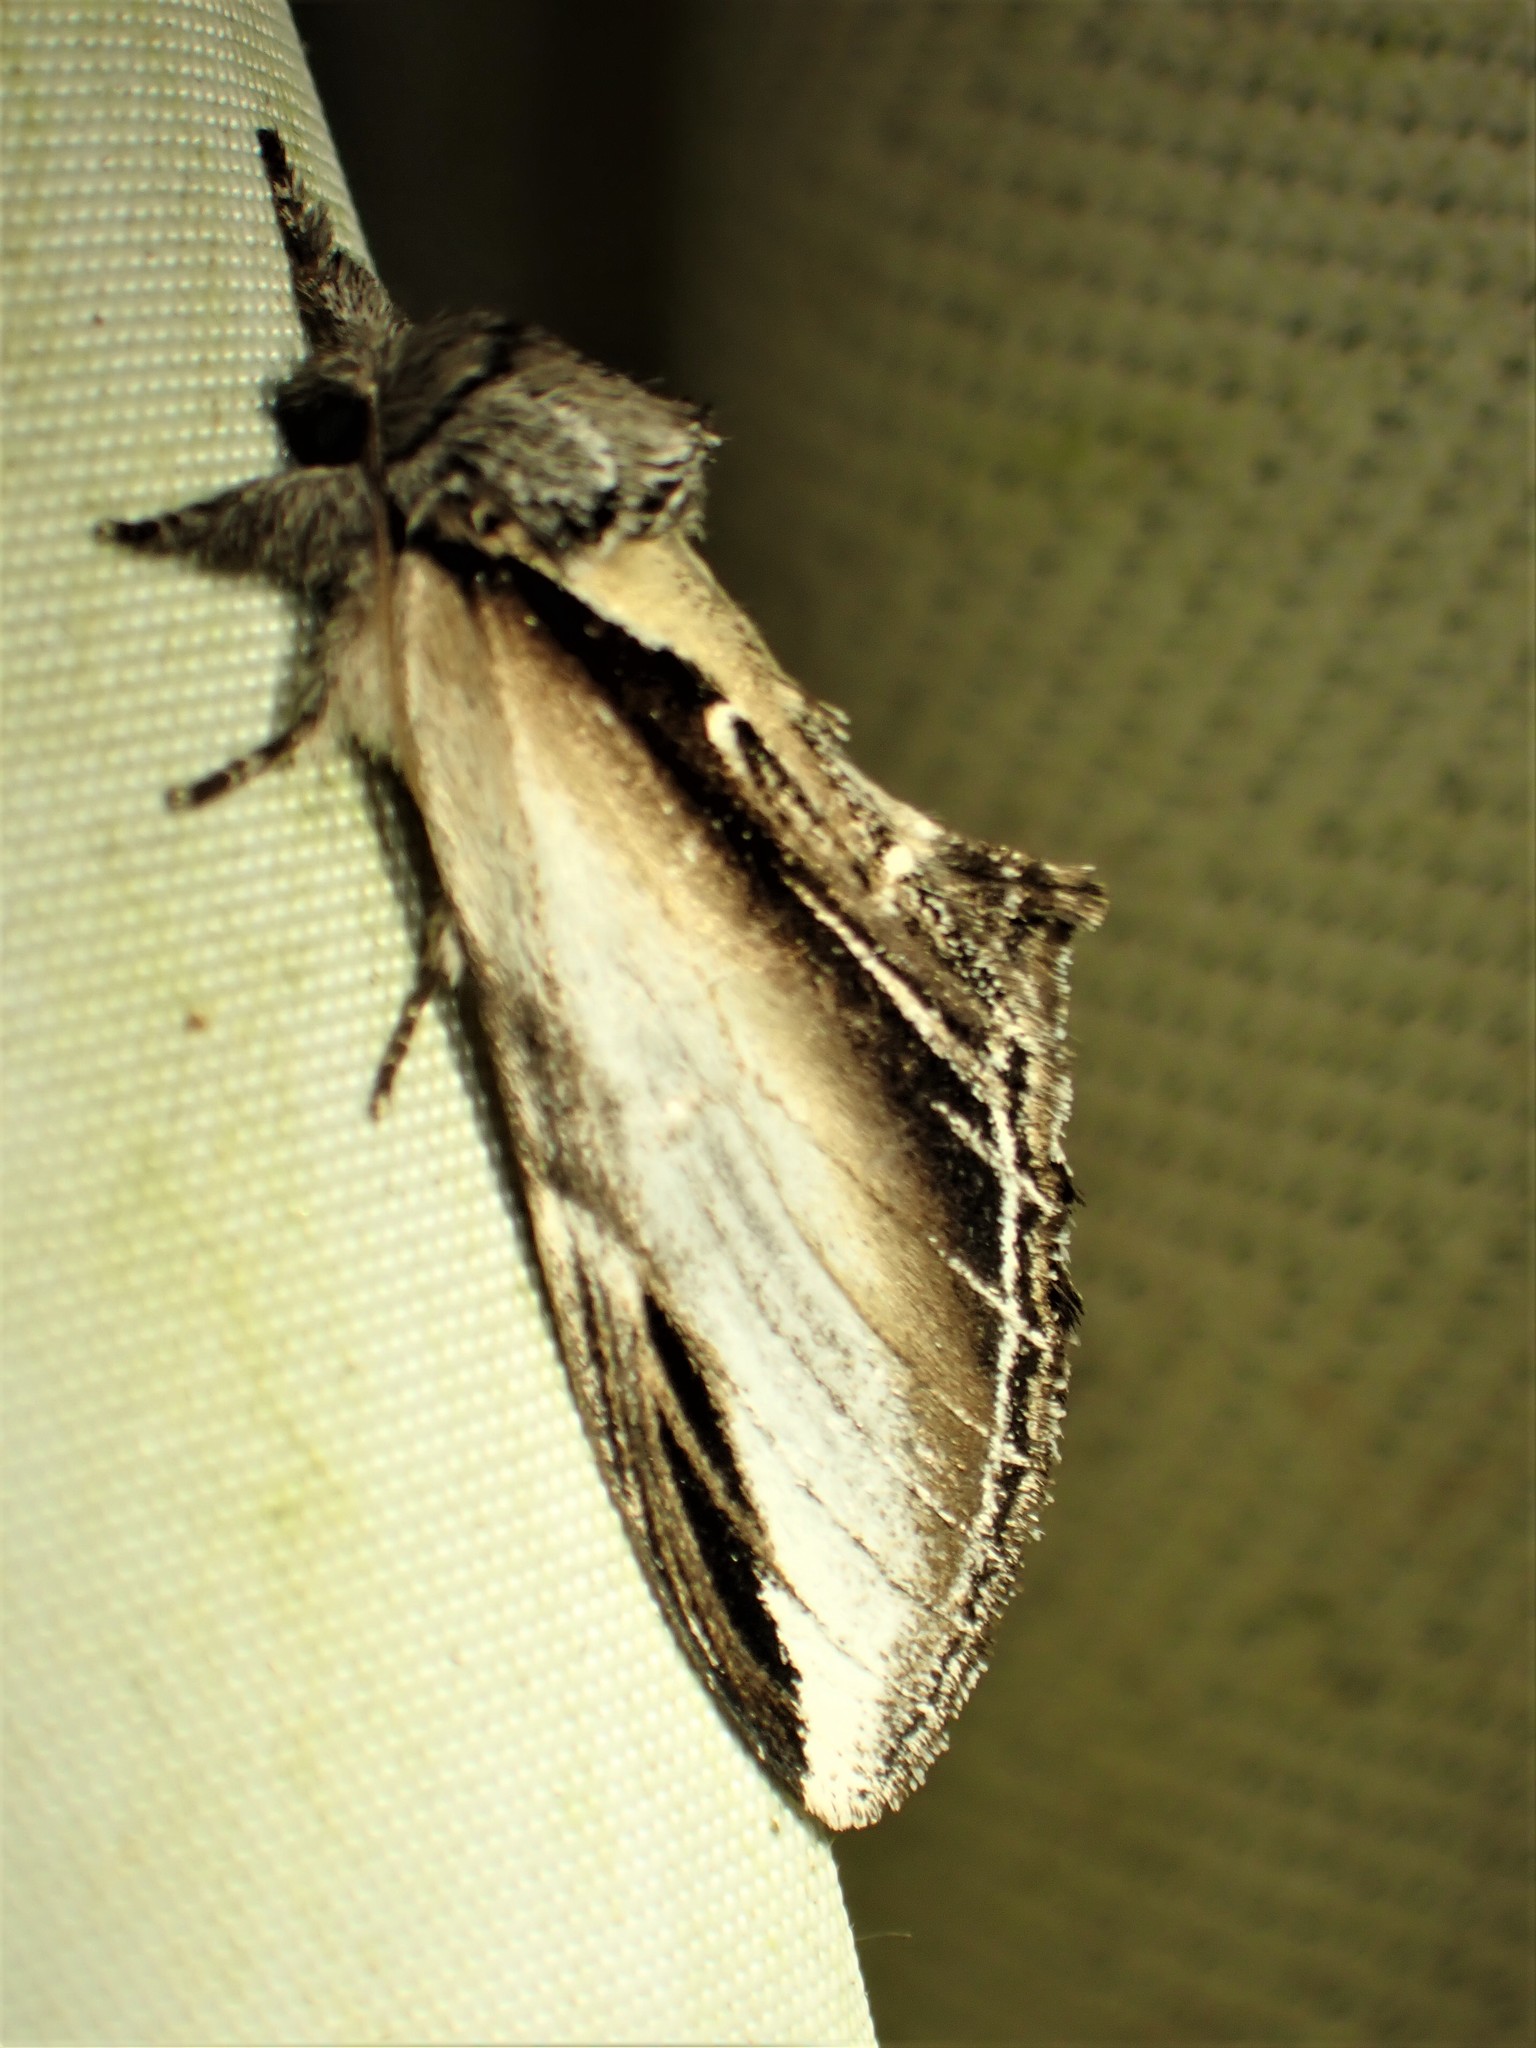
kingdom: Animalia
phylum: Arthropoda
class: Insecta
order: Lepidoptera
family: Notodontidae
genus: Pheosia
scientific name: Pheosia rimosa
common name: Black-rimmed prominent
